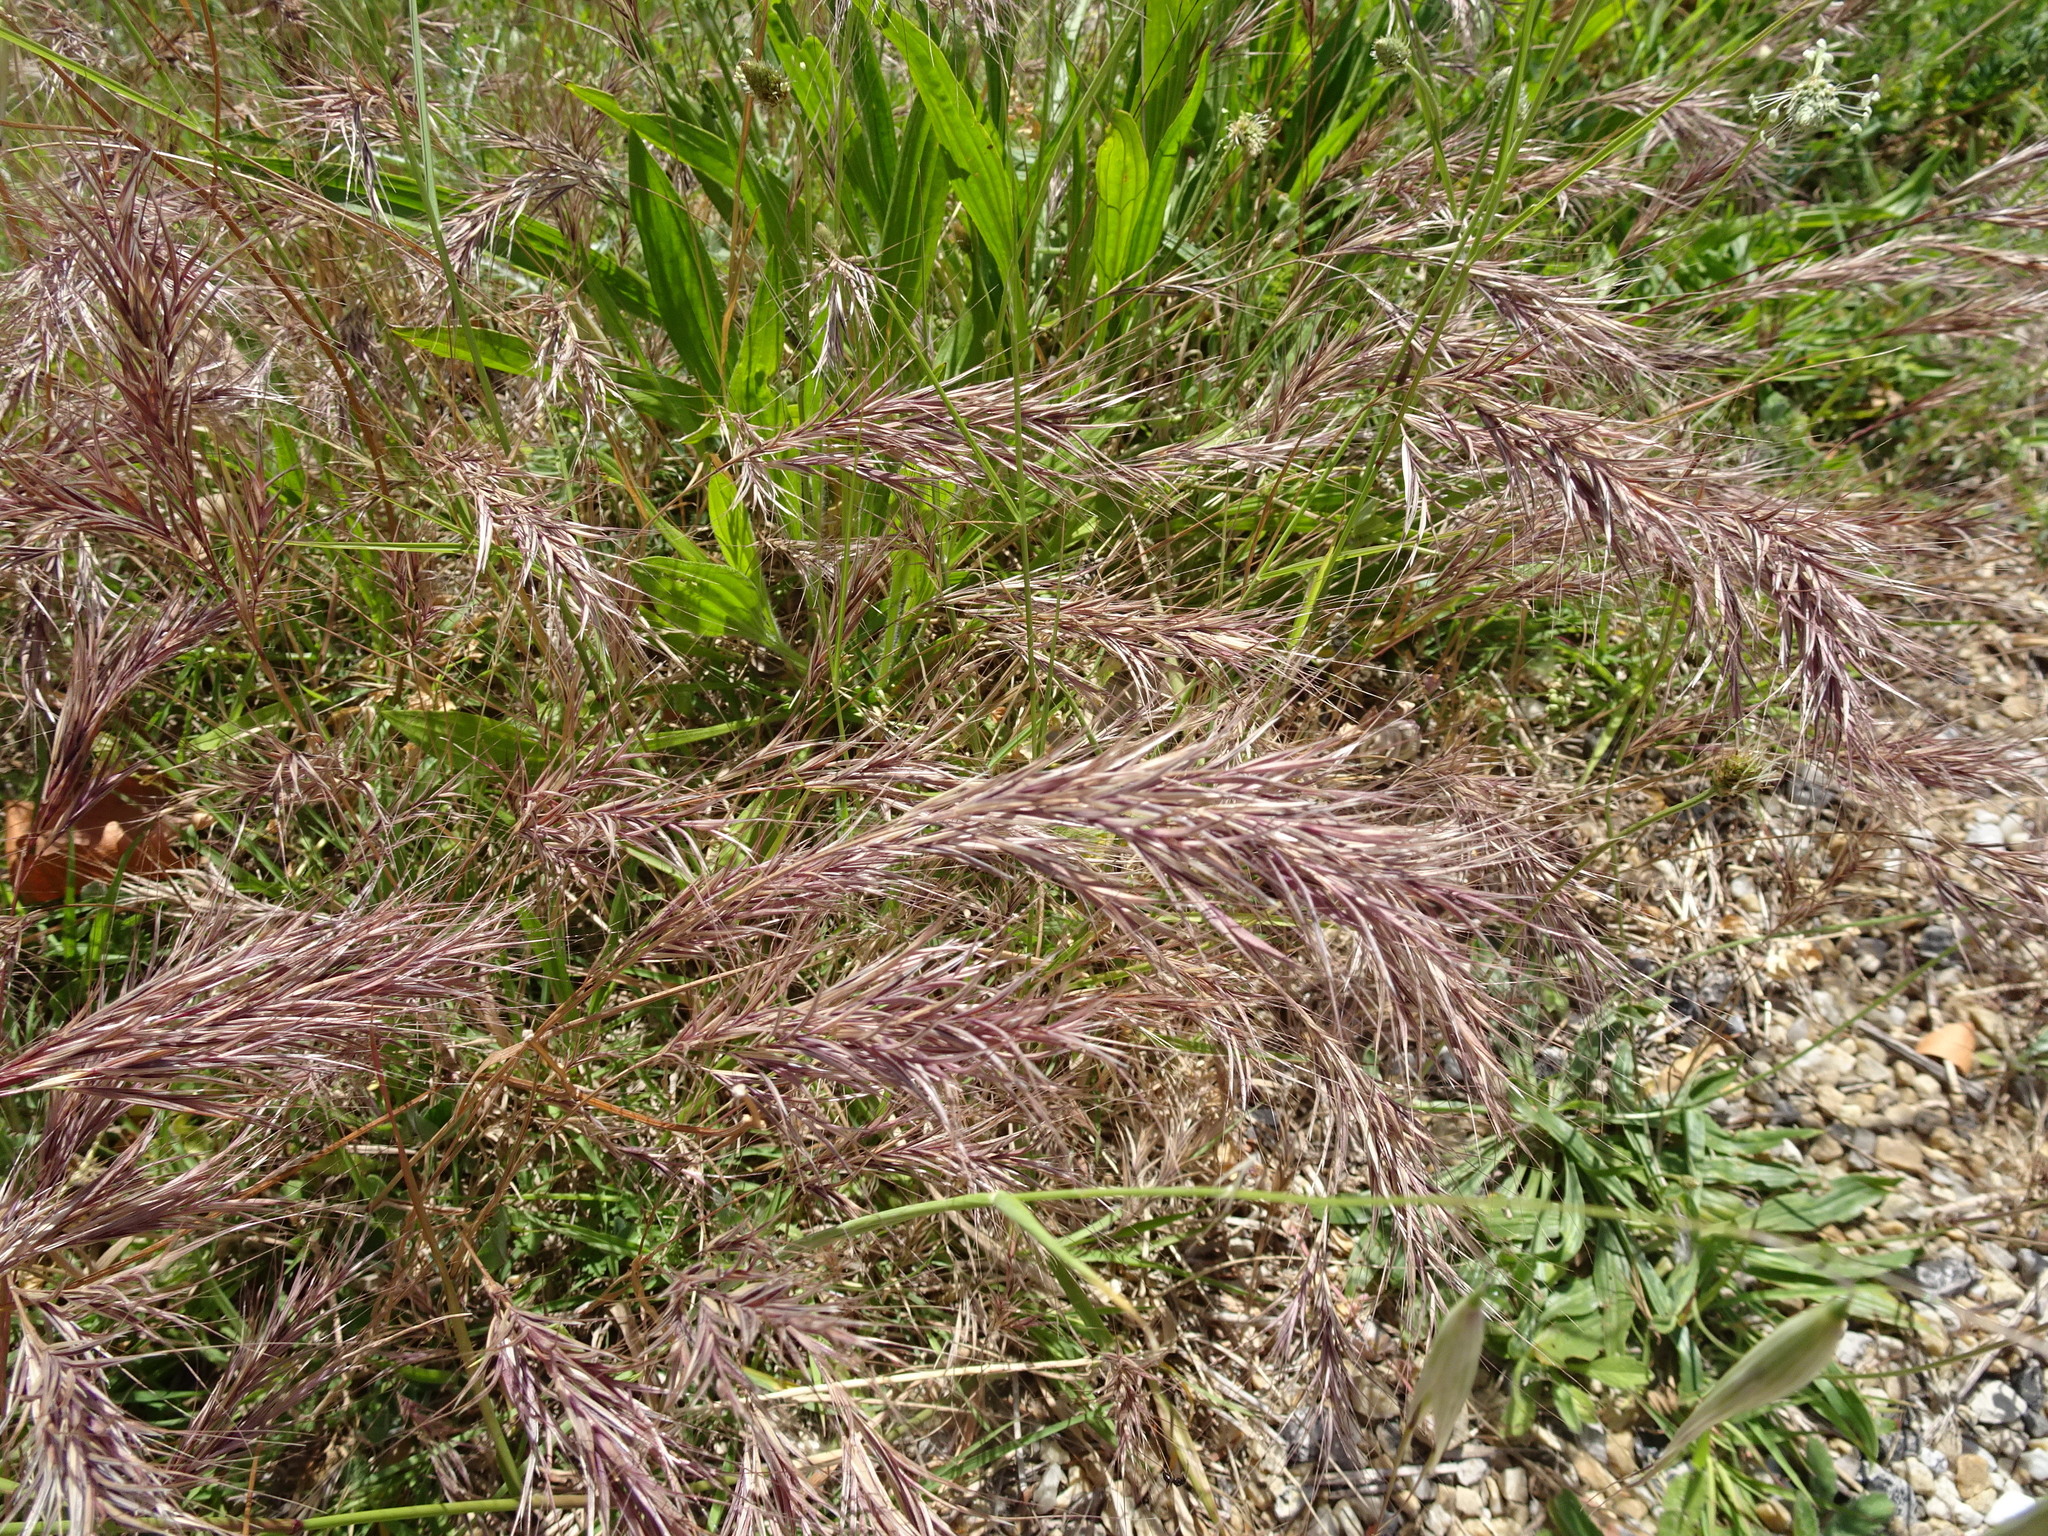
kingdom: Plantae
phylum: Tracheophyta
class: Liliopsida
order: Poales
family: Poaceae
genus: Bromus
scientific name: Bromus madritensis
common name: Compact brome
